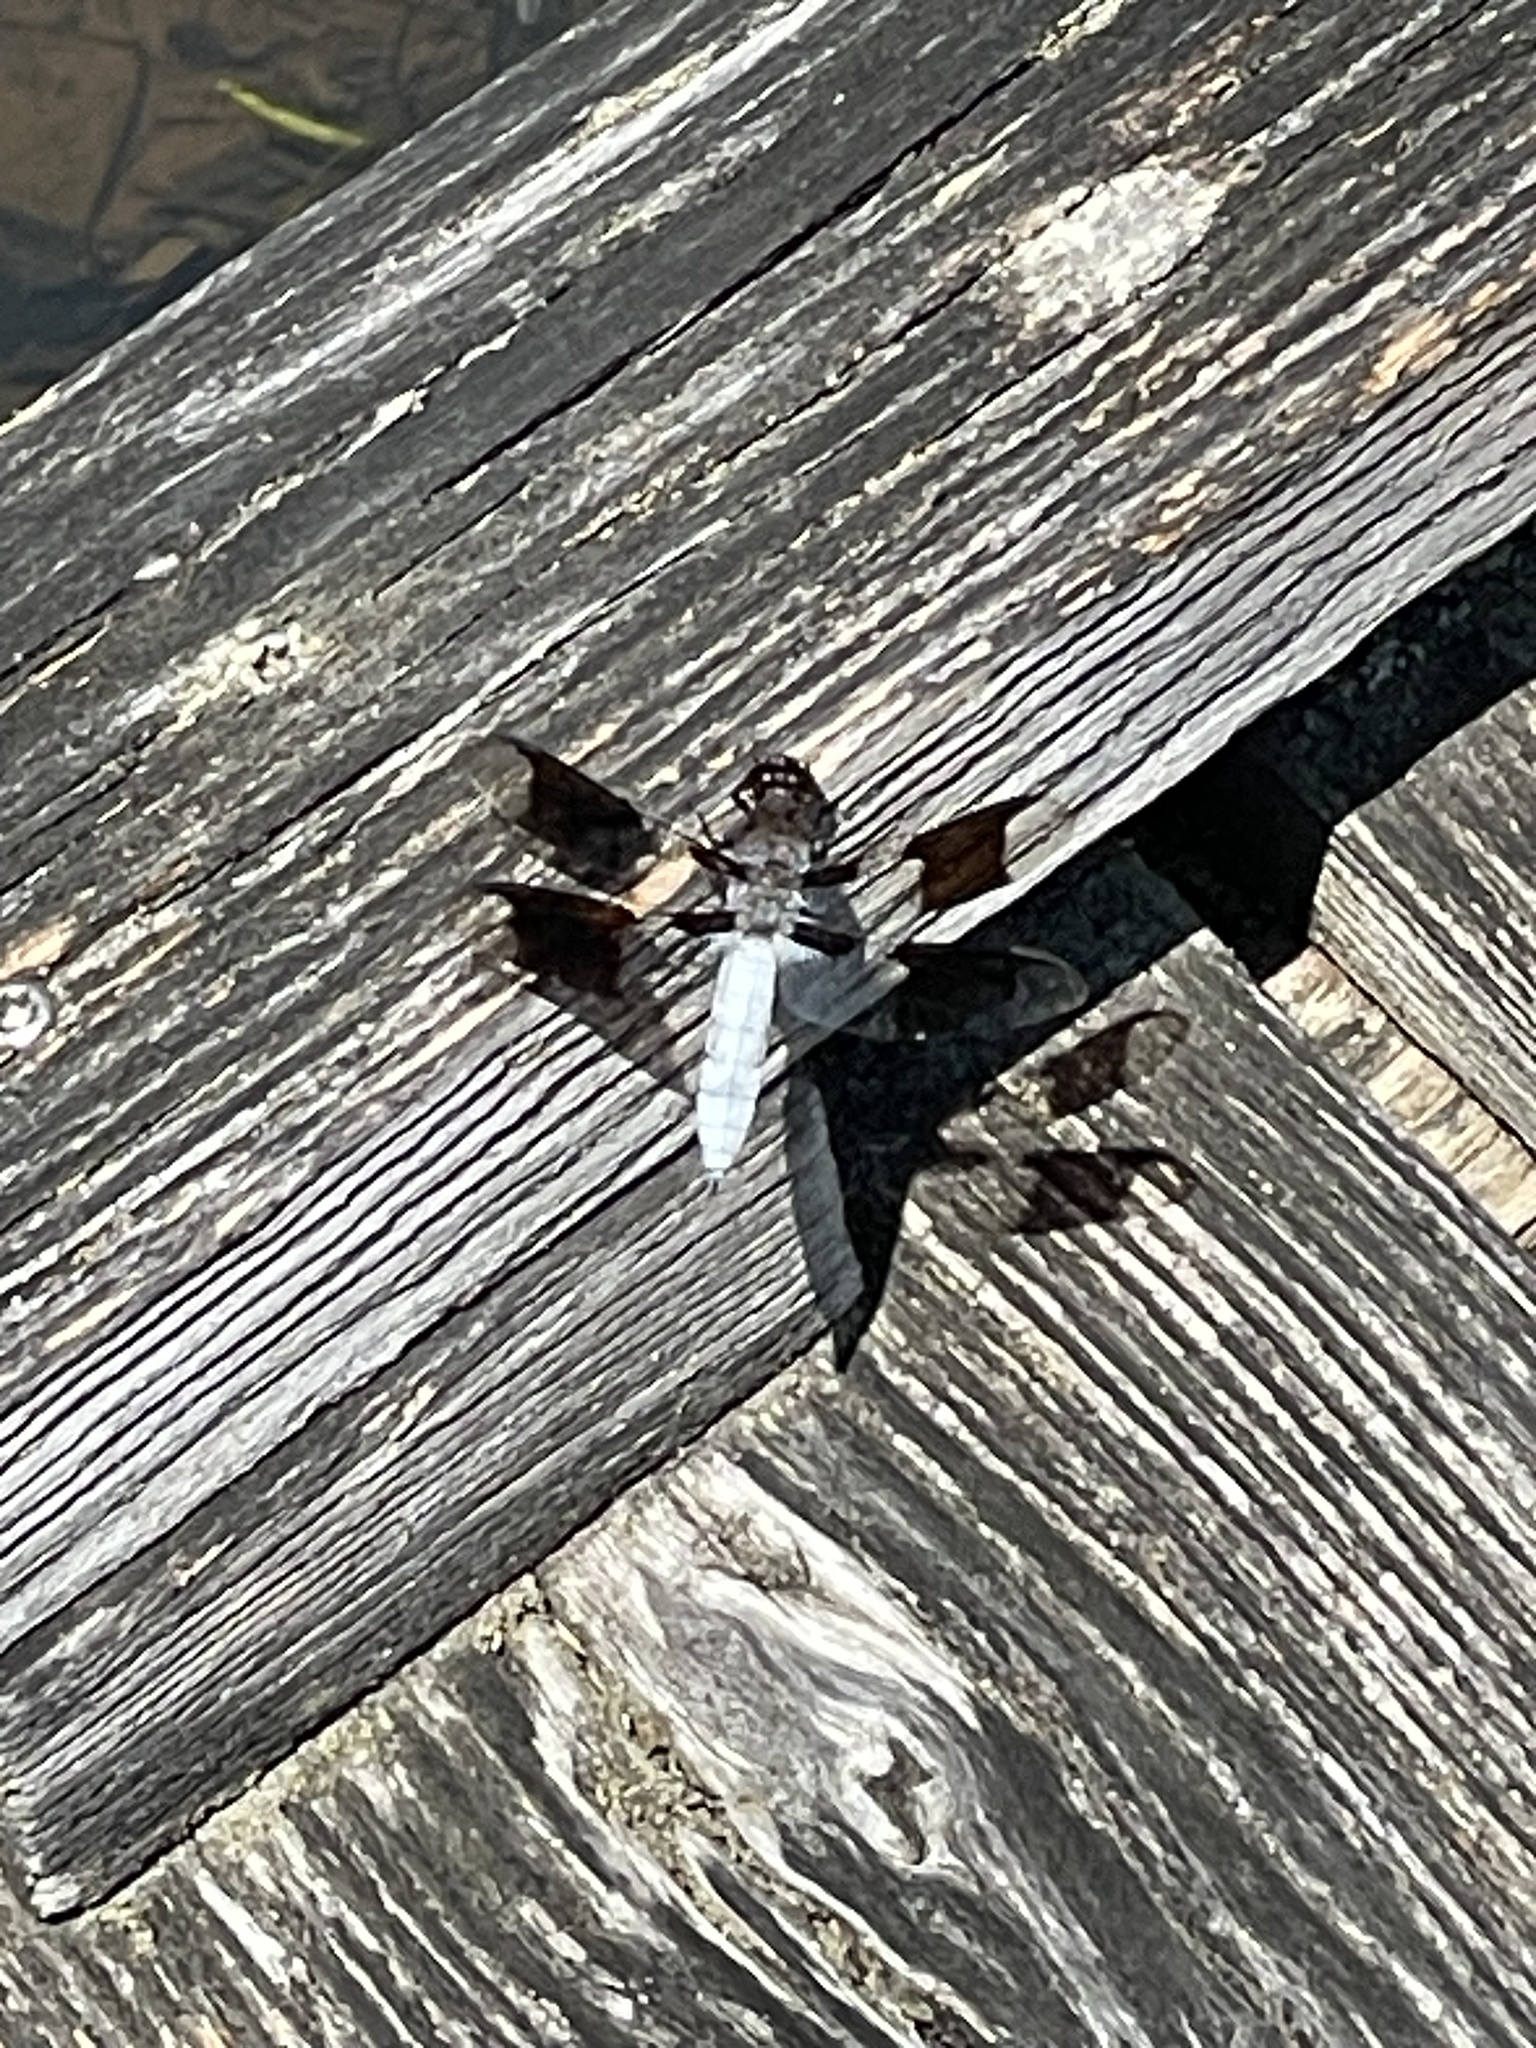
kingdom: Animalia
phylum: Arthropoda
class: Insecta
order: Odonata
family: Libellulidae
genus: Plathemis
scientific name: Plathemis lydia
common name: Common whitetail
